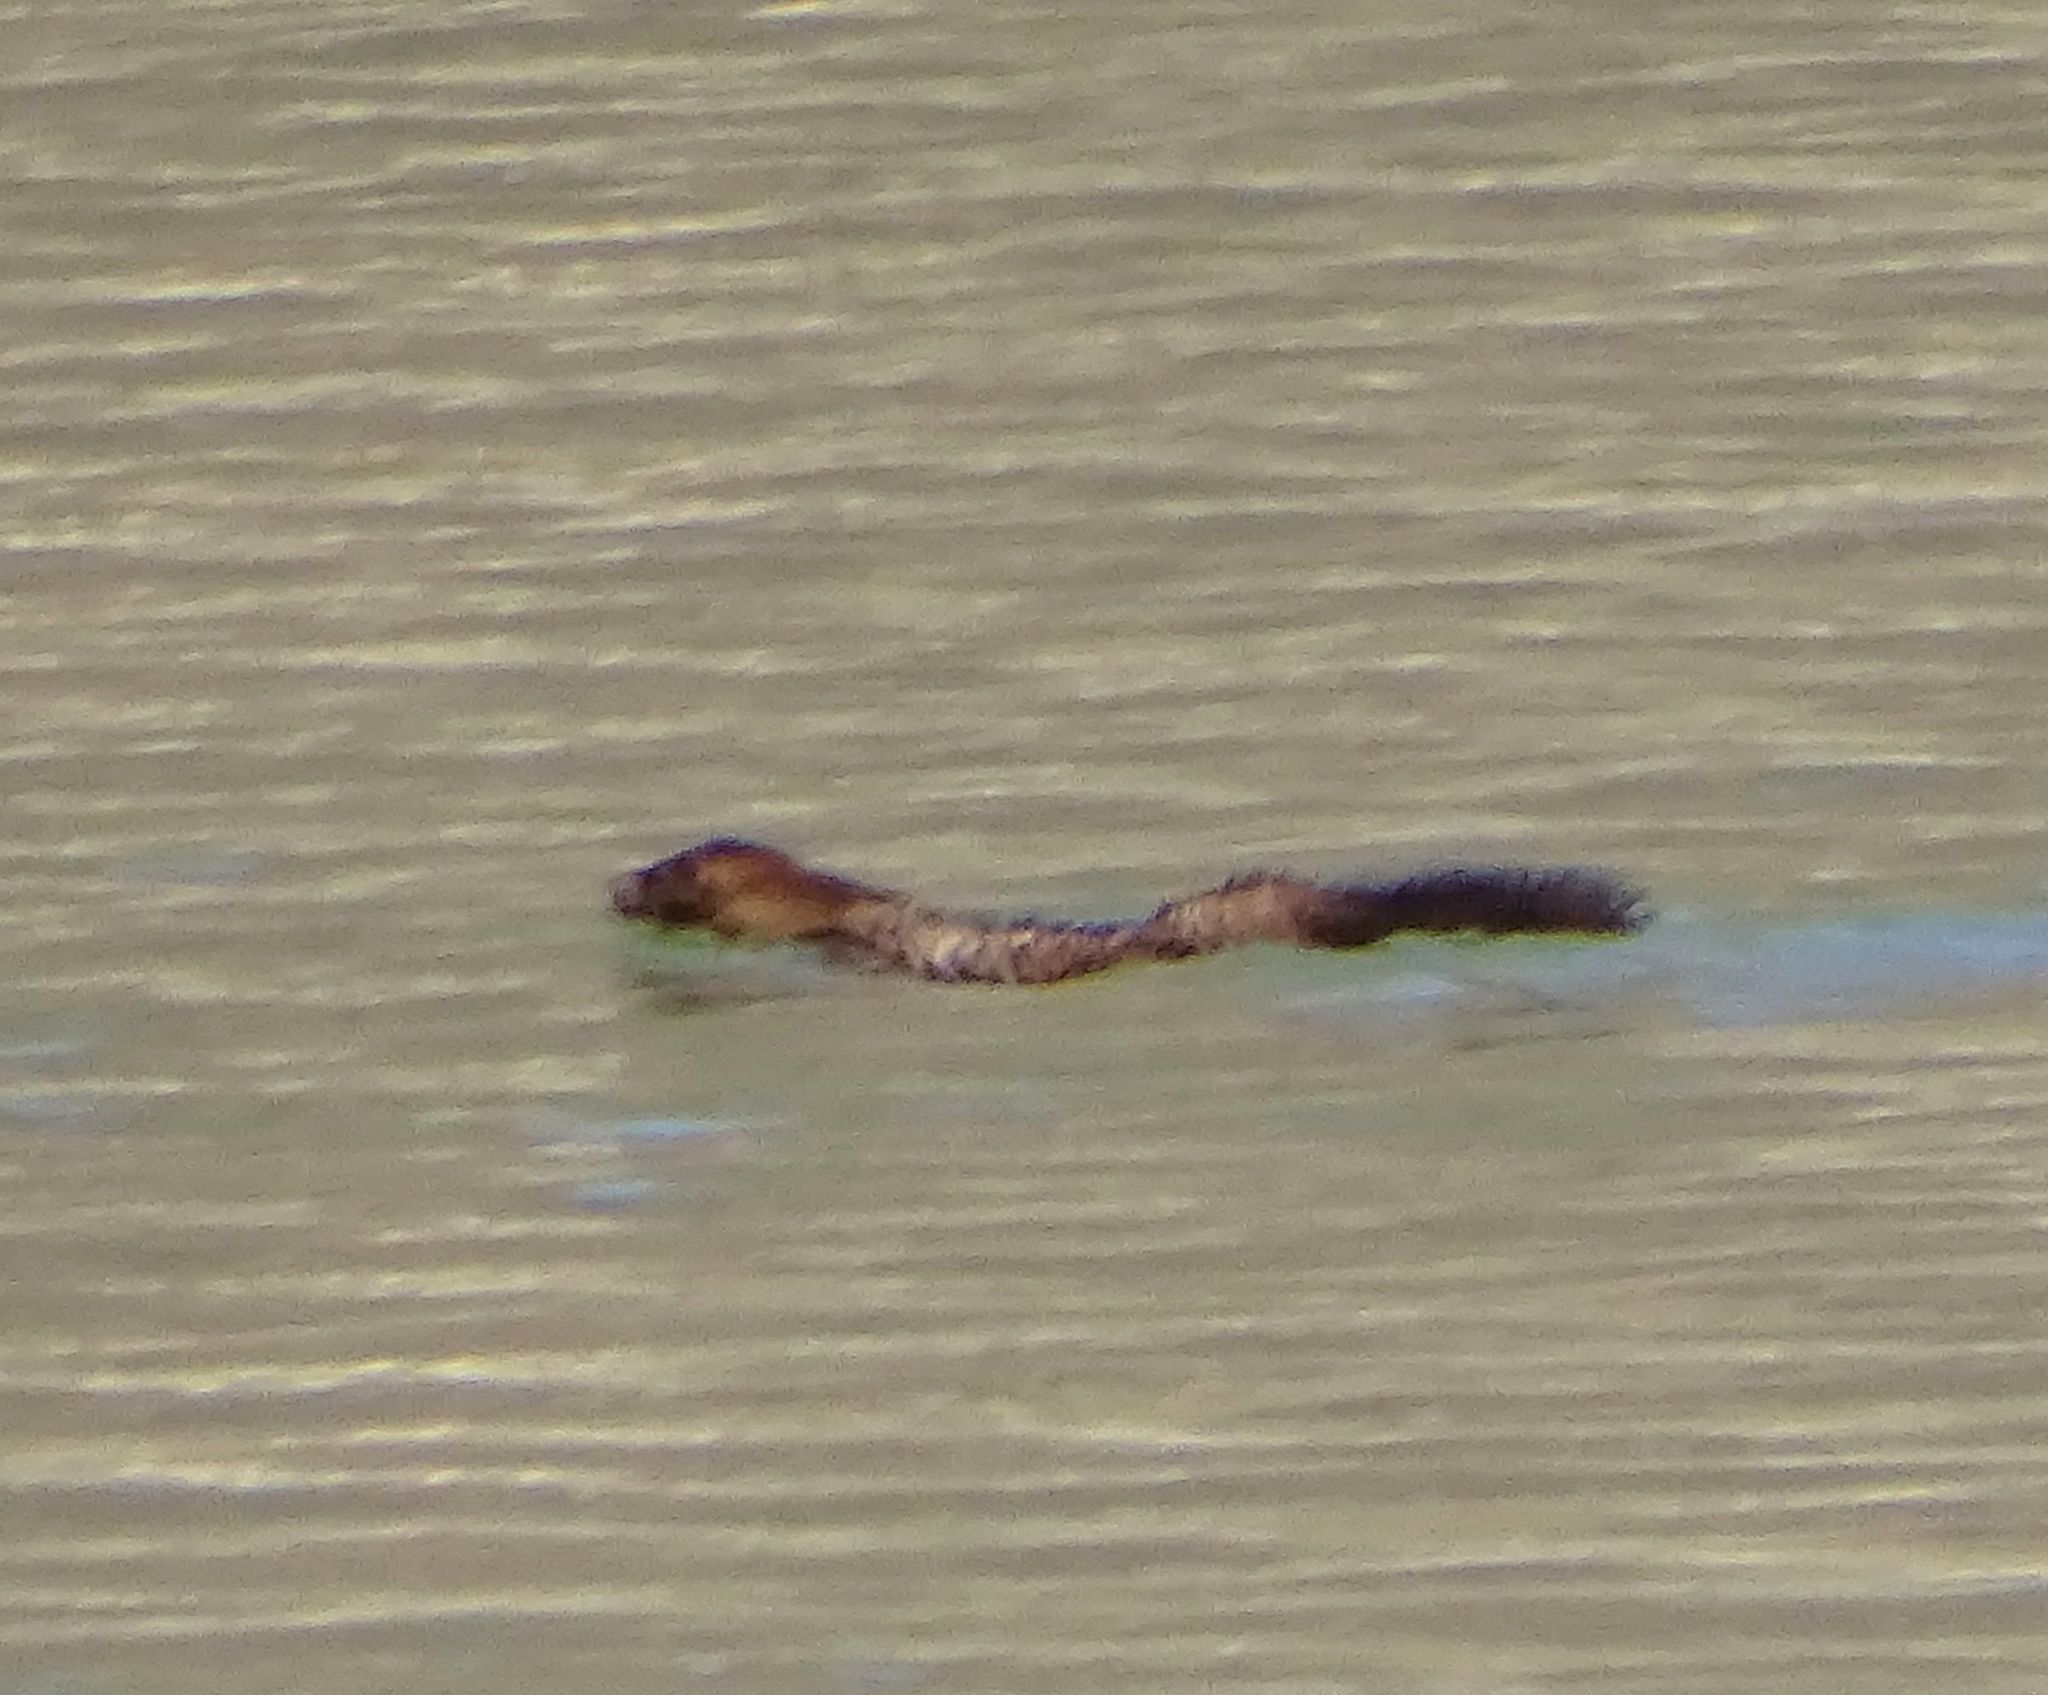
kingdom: Animalia
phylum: Chordata
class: Mammalia
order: Carnivora
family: Mustelidae
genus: Mustela
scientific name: Mustela
